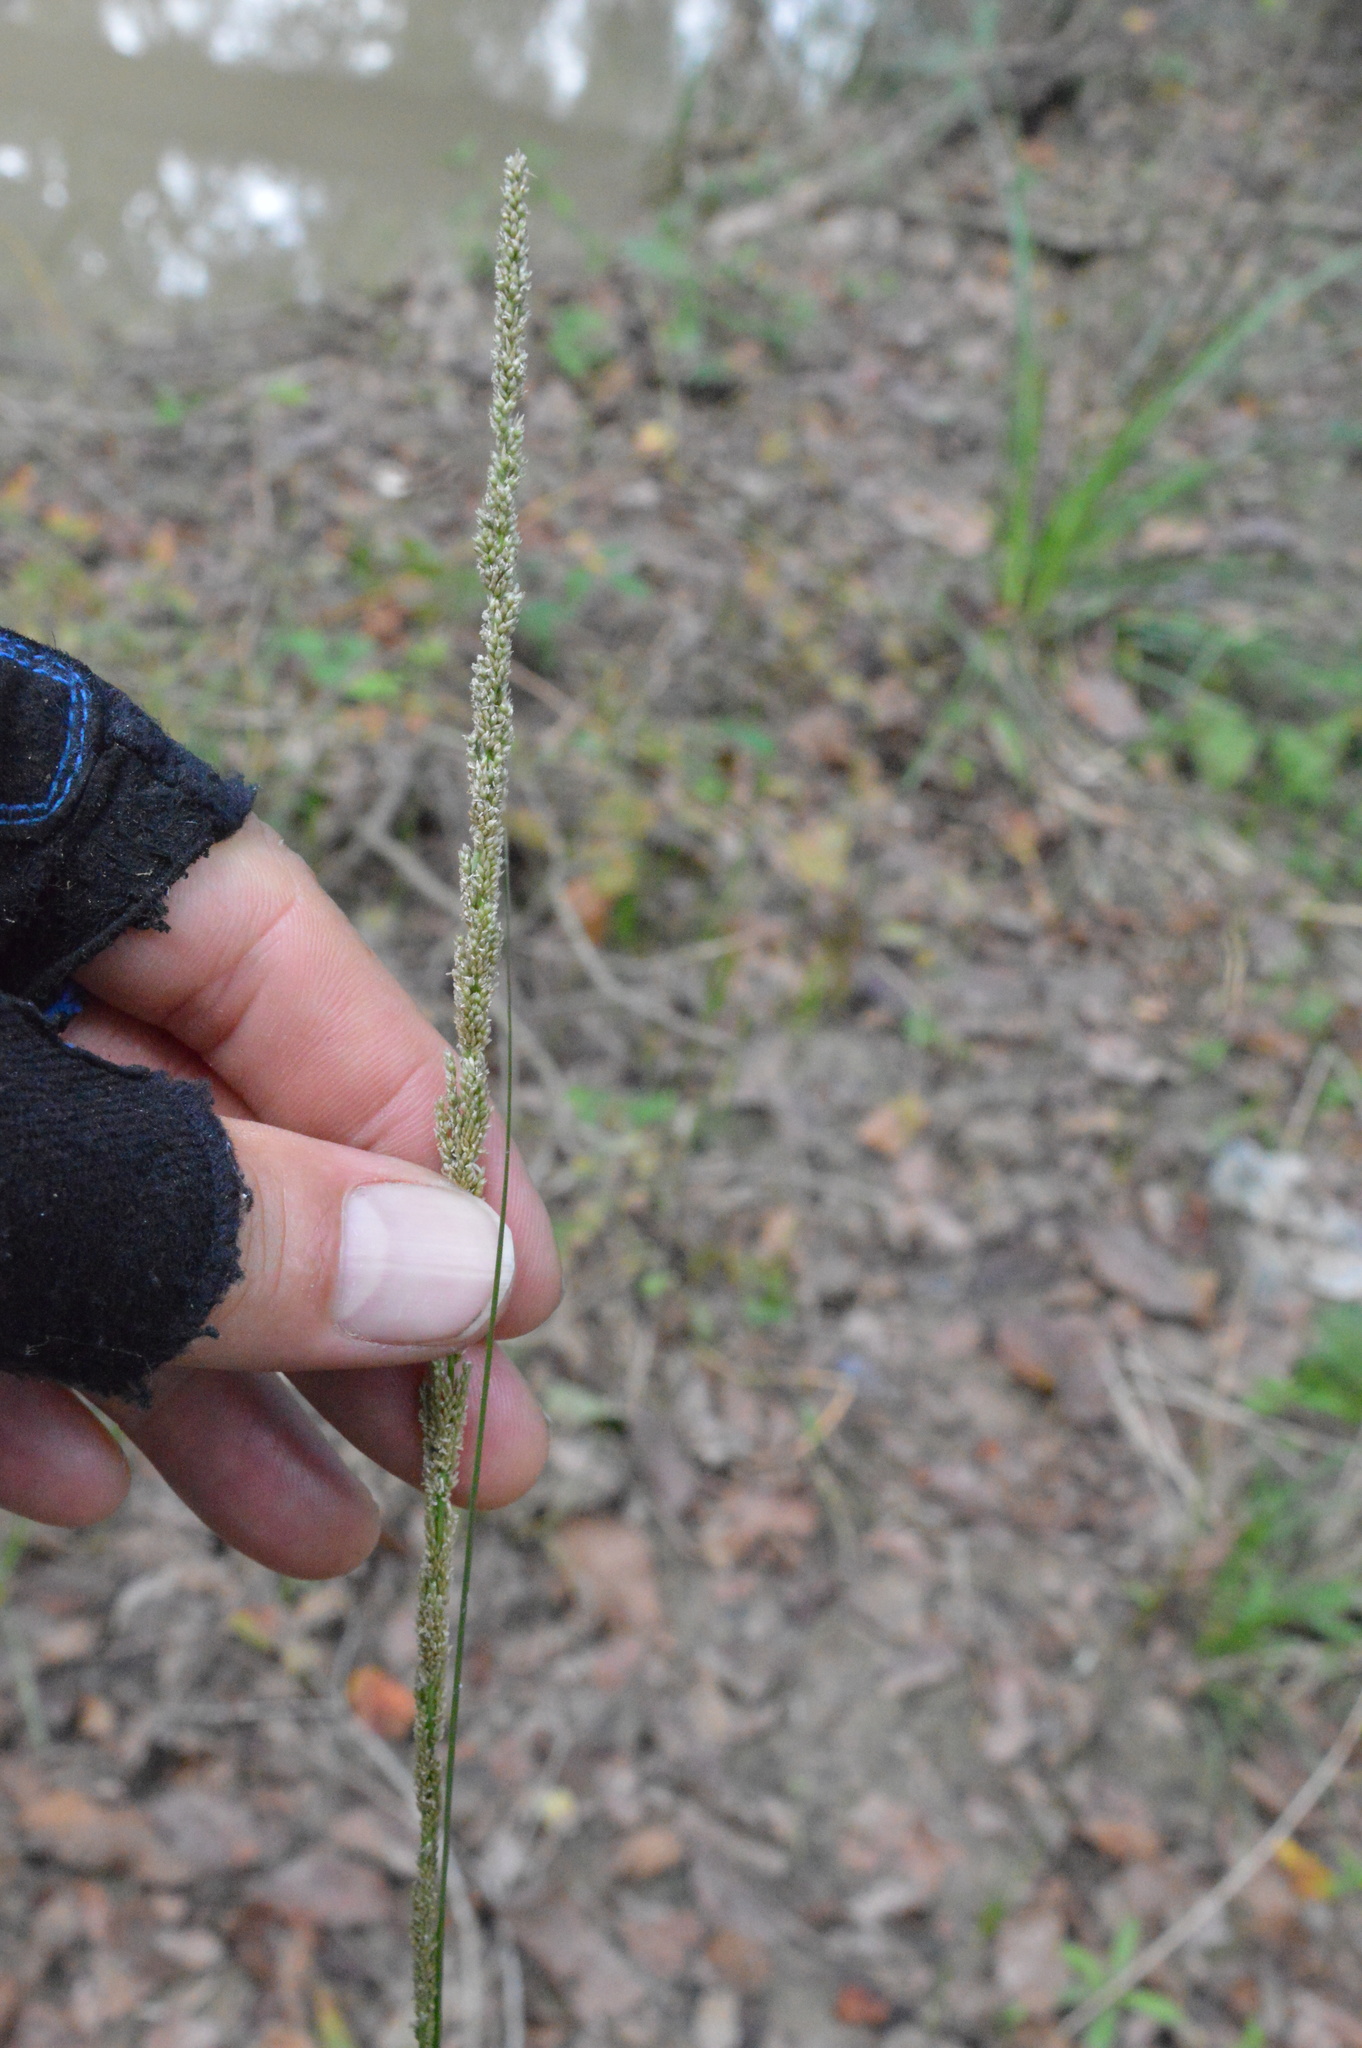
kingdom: Plantae
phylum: Tracheophyta
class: Liliopsida
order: Poales
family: Poaceae
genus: Sporobolus
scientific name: Sporobolus indicus
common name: Smut grass
